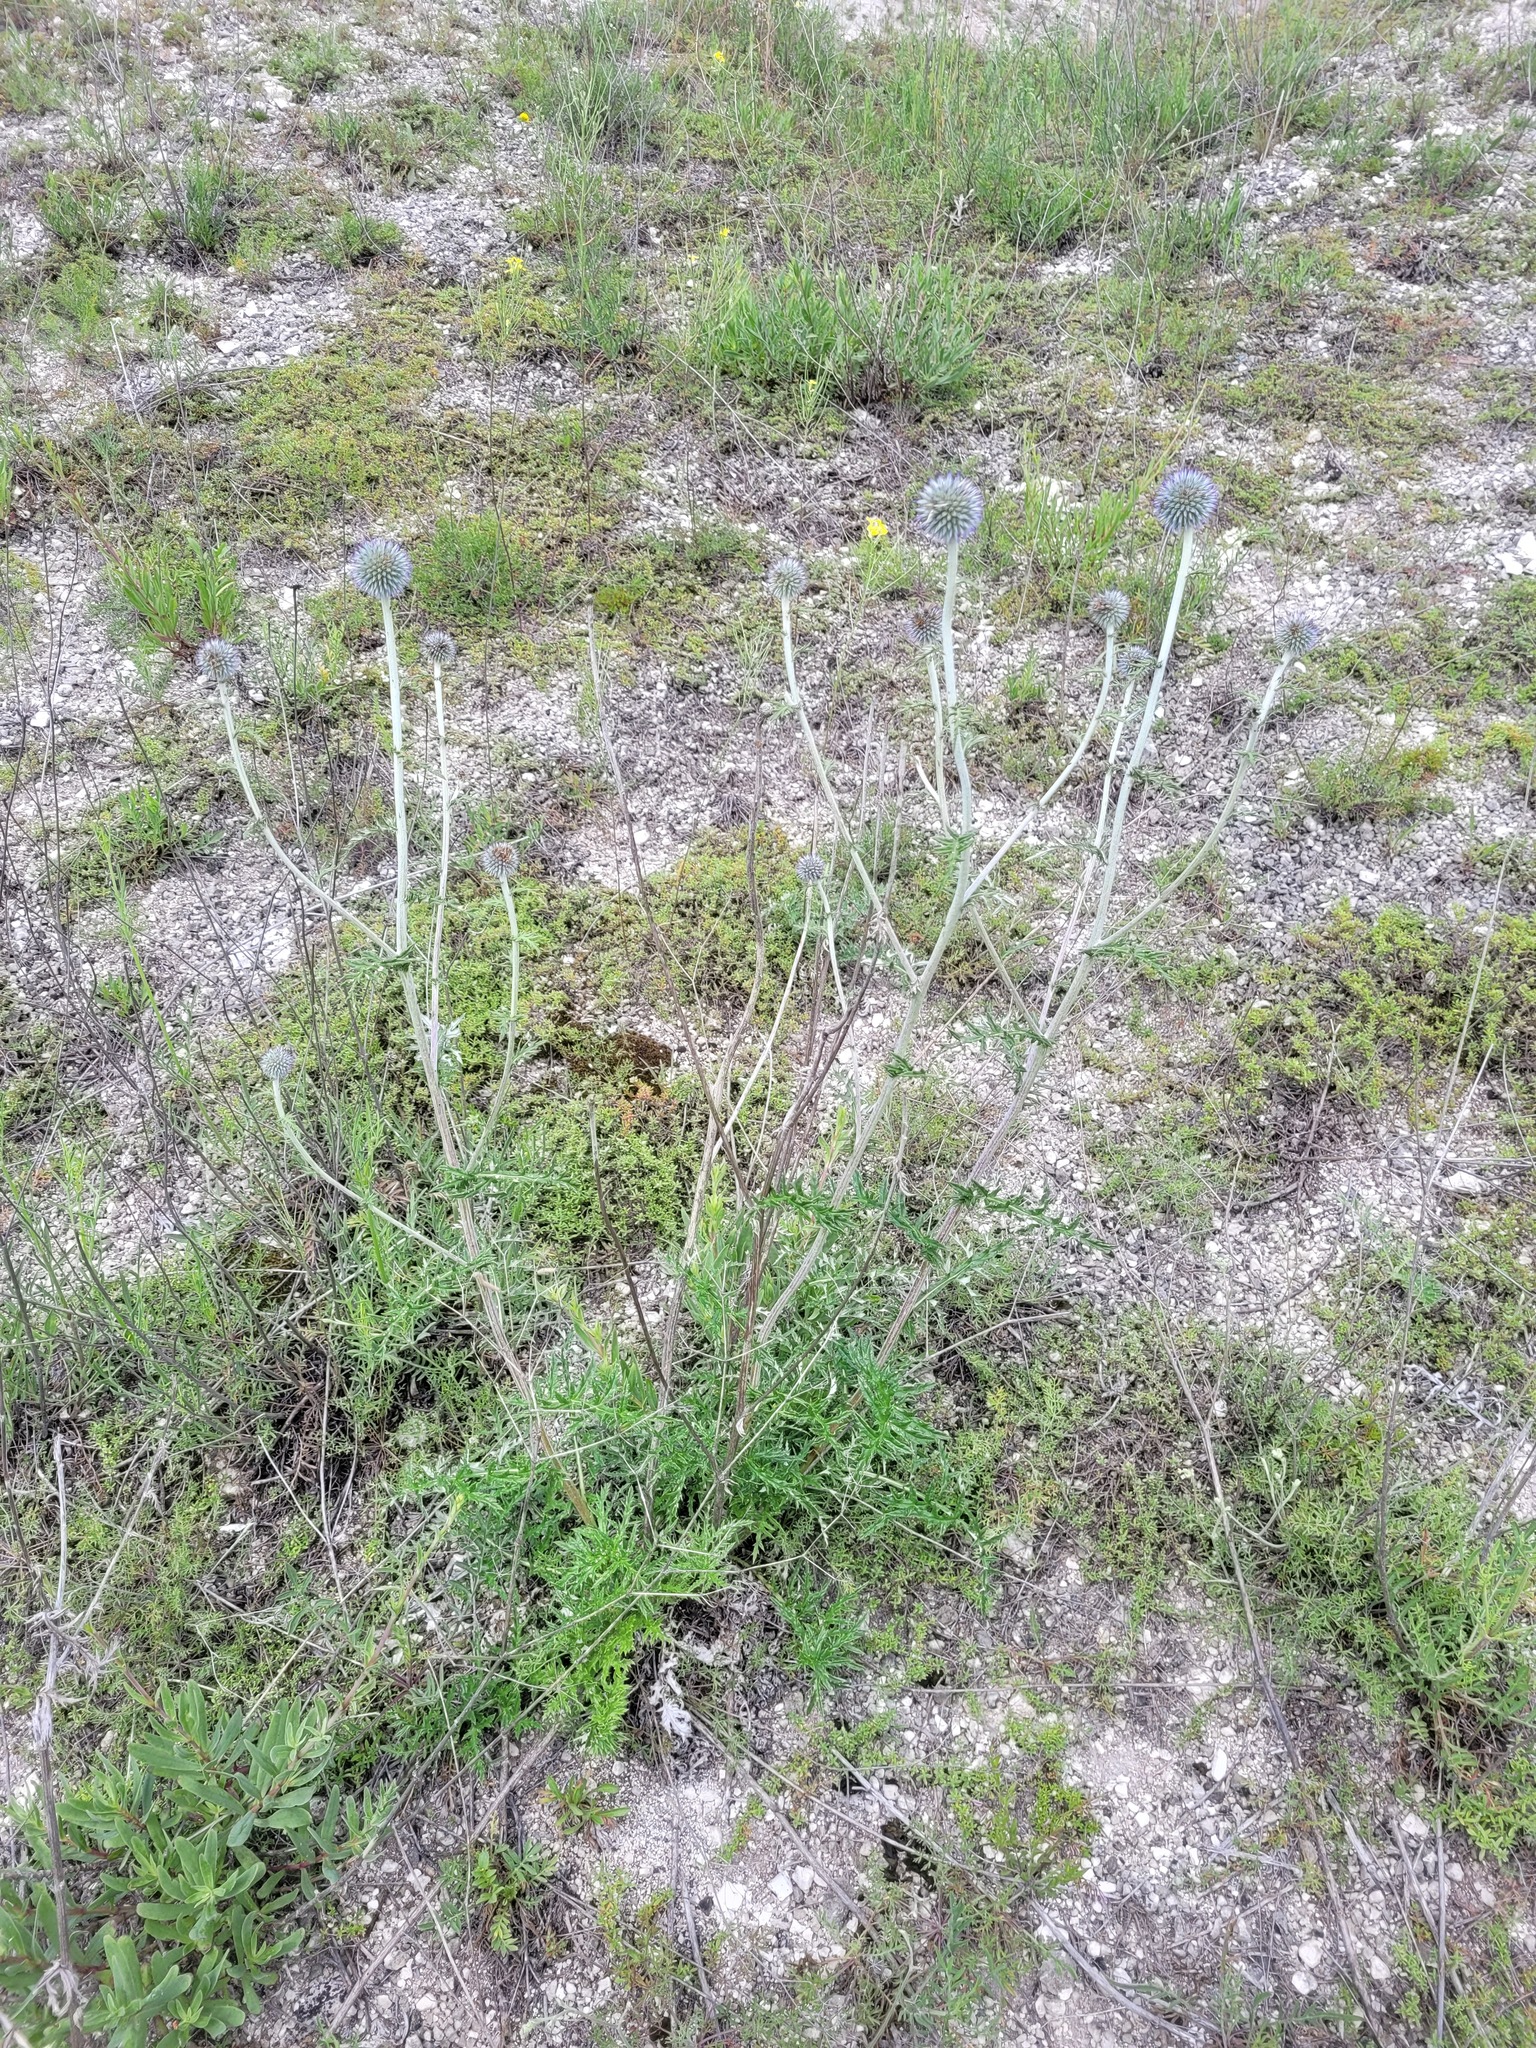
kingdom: Plantae
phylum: Tracheophyta
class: Magnoliopsida
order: Asterales
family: Asteraceae
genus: Echinops
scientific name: Echinops ritro
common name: Globe thistle
